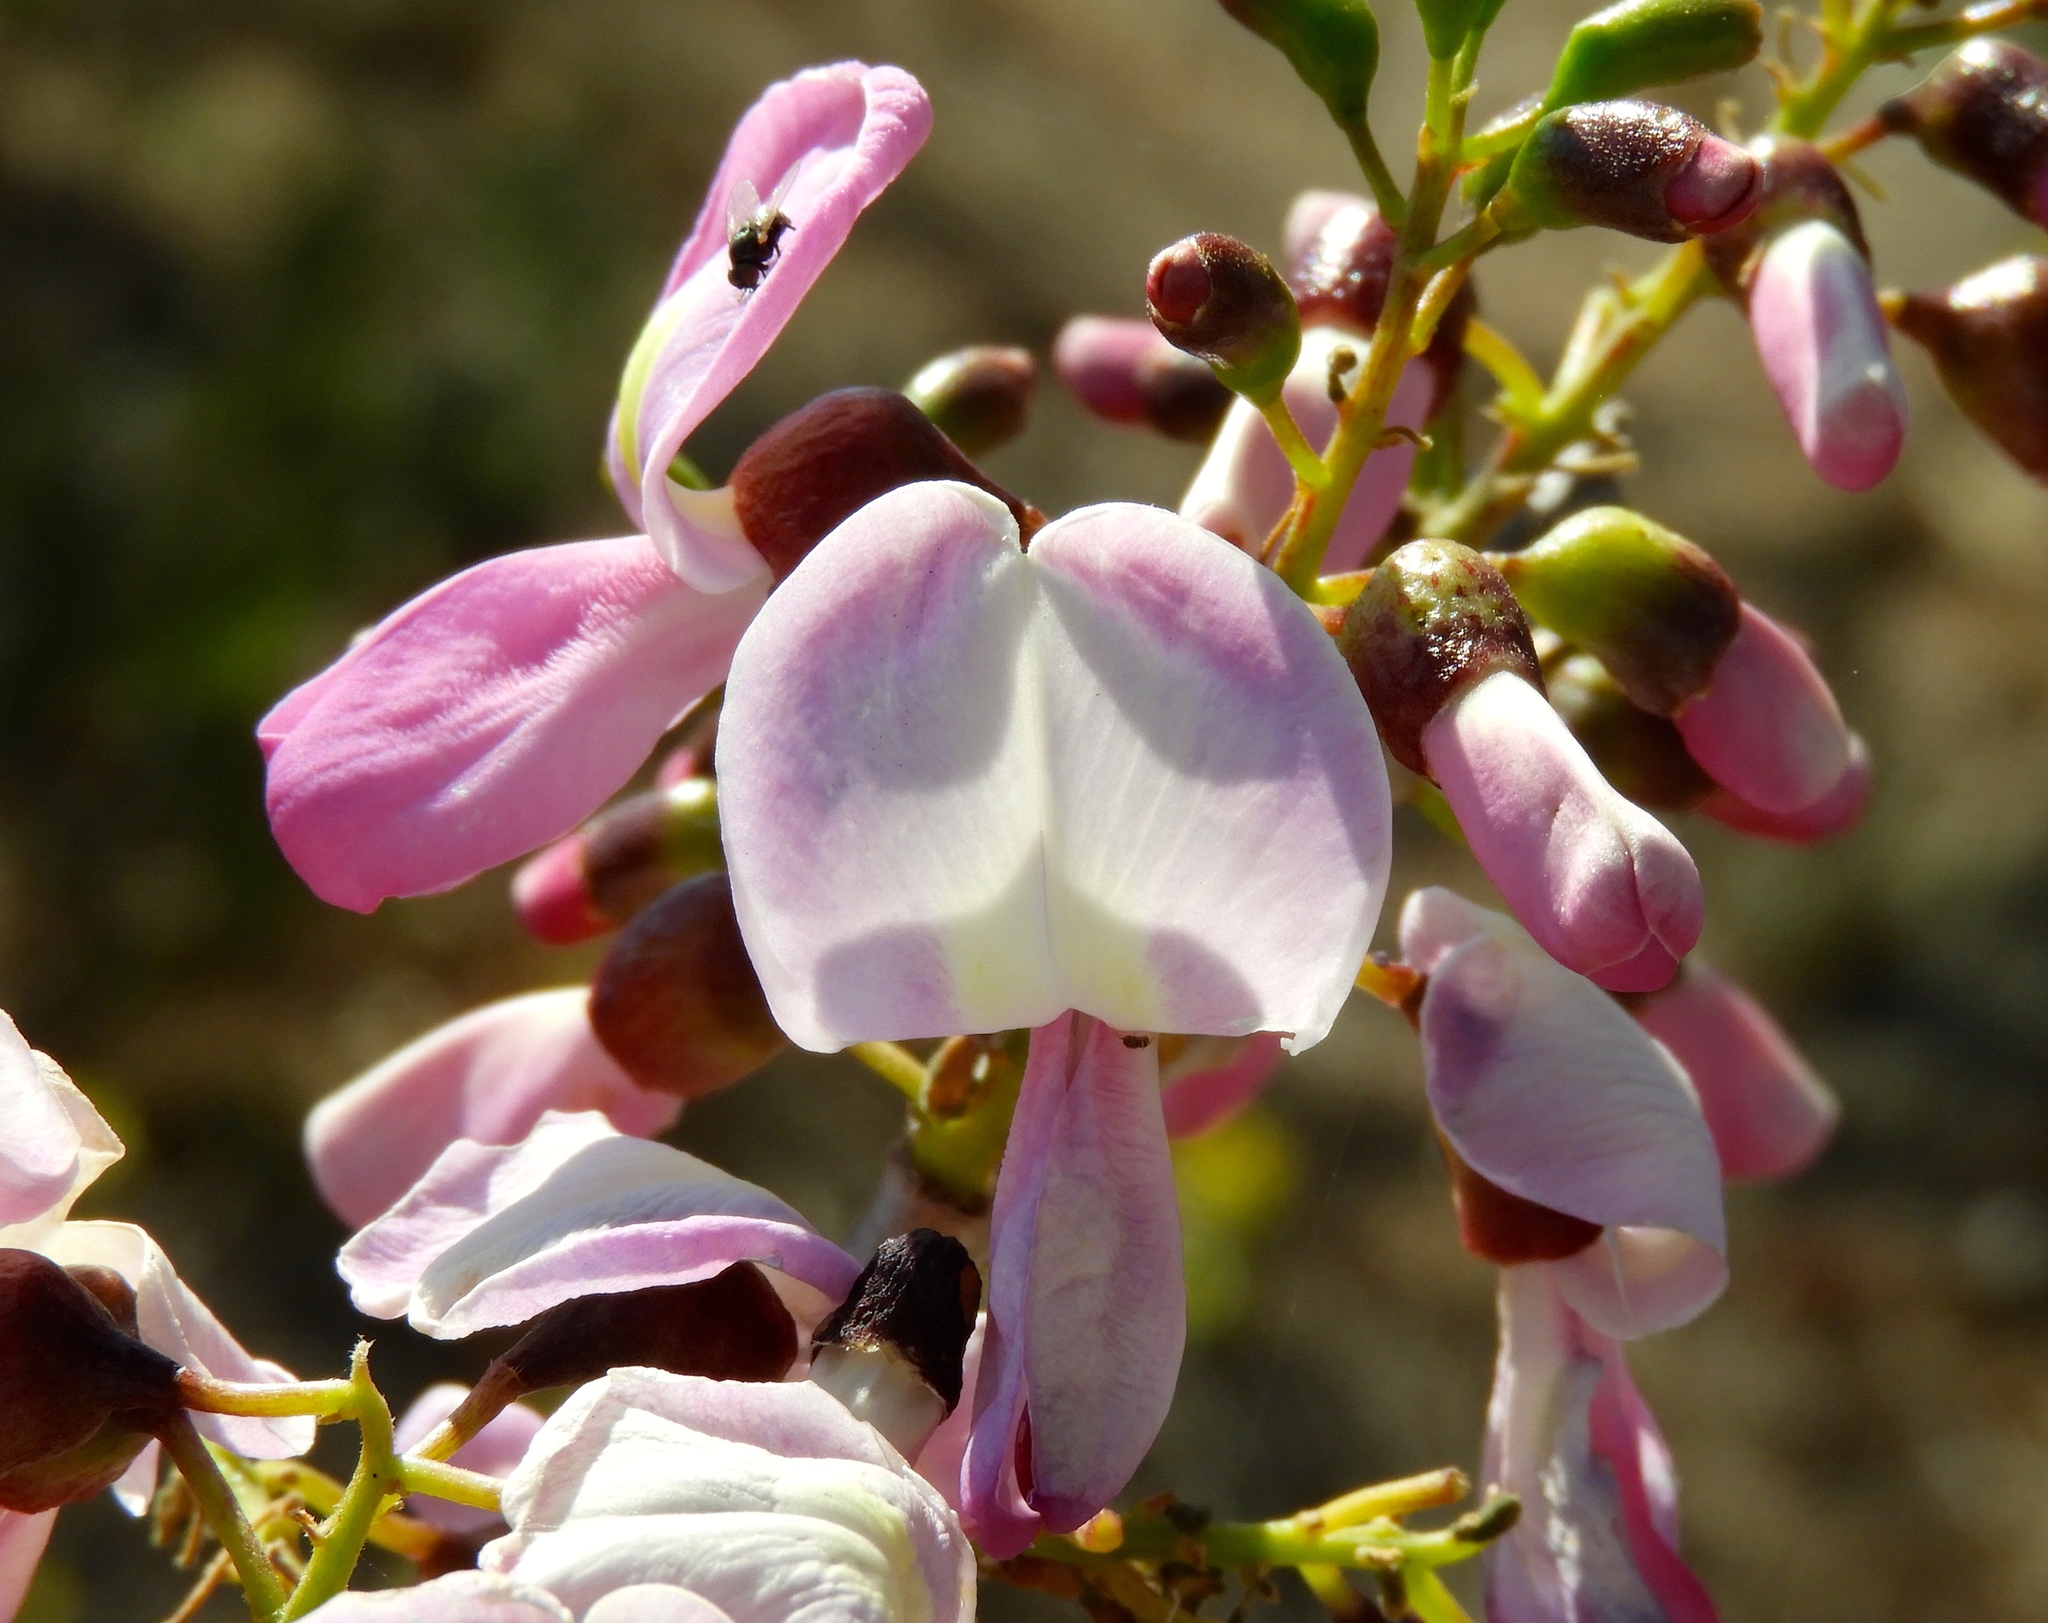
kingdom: Plantae
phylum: Tracheophyta
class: Magnoliopsida
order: Fabales
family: Fabaceae
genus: Gliricidia
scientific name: Gliricidia sepium
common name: Quickstick
